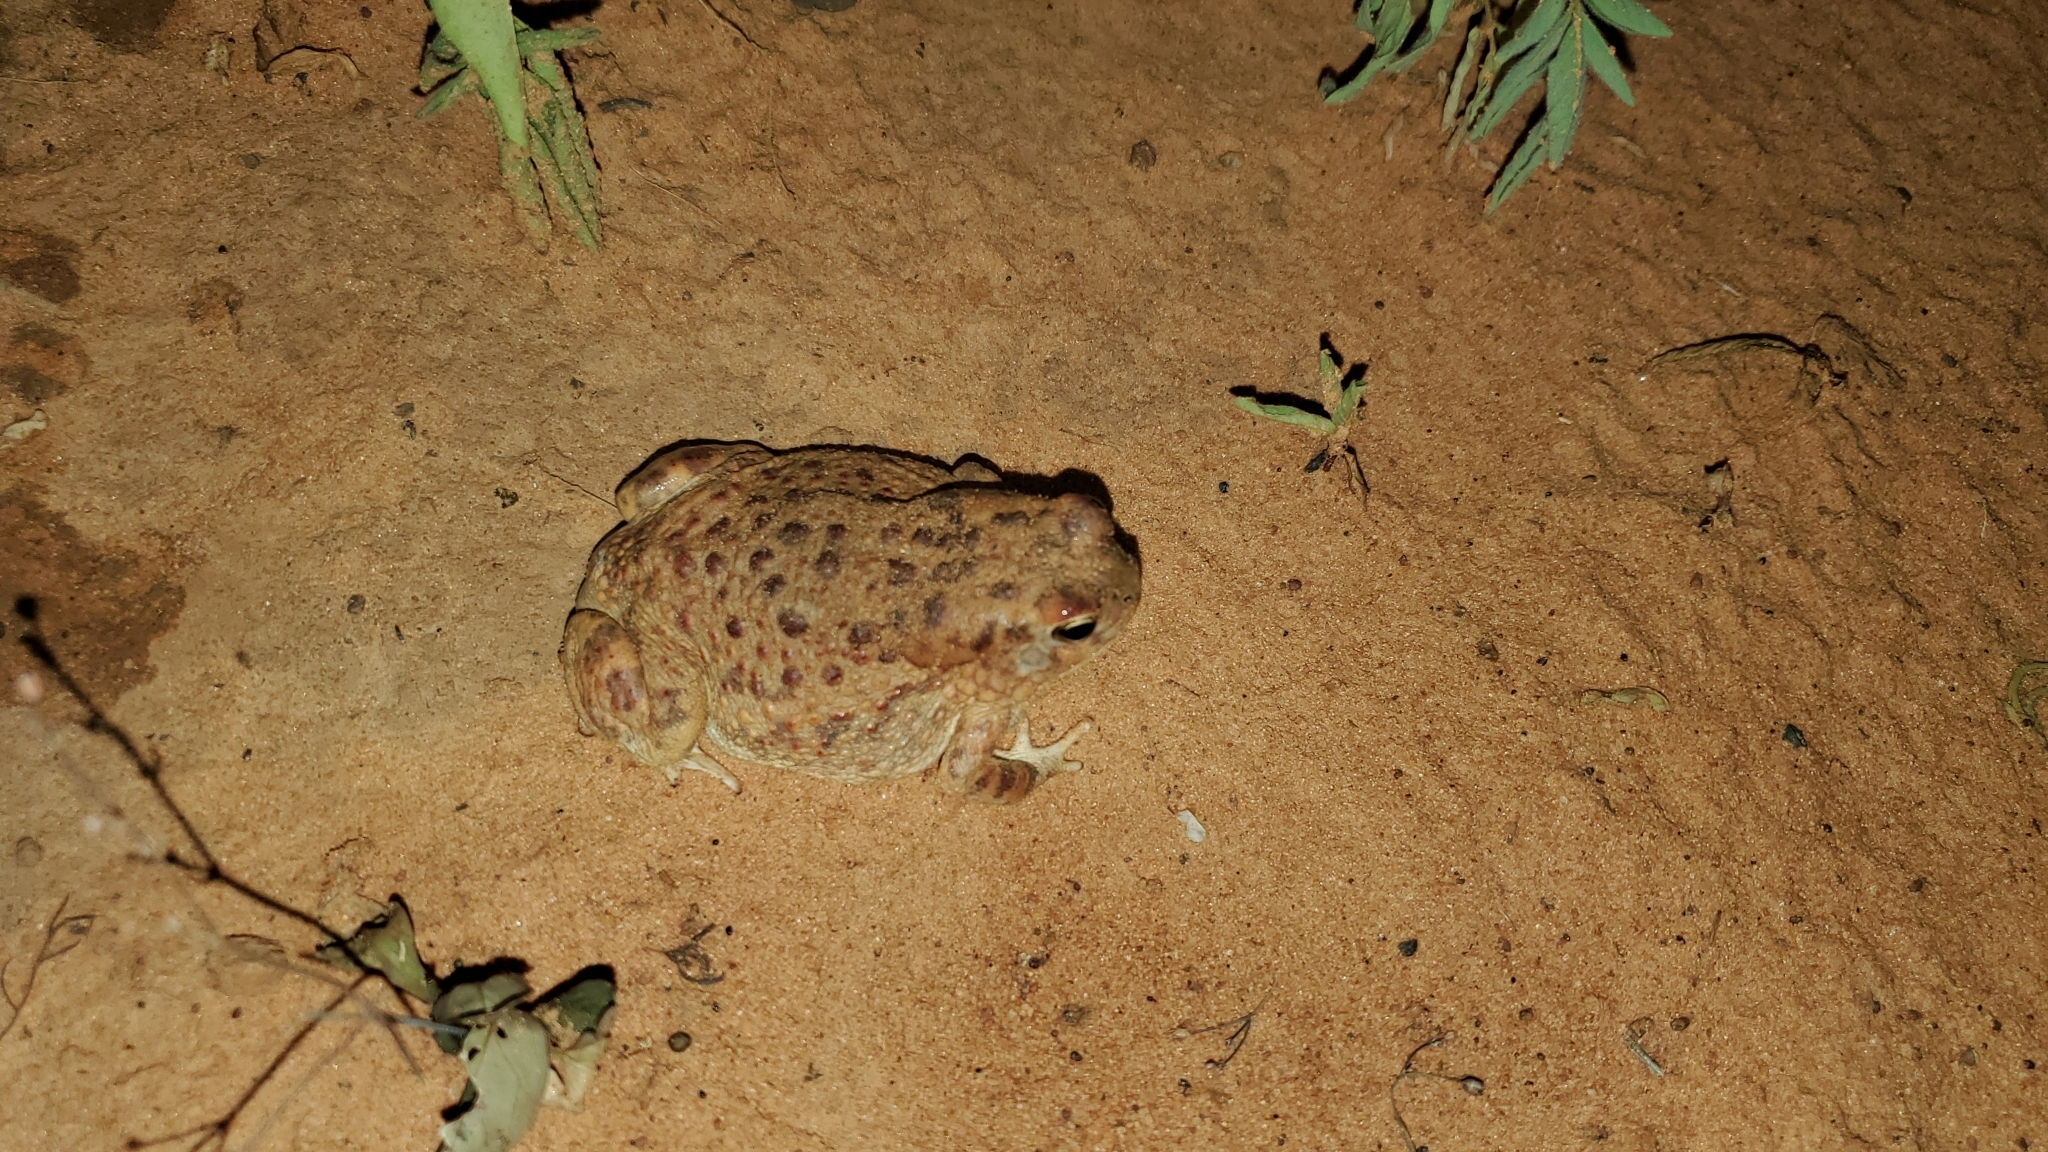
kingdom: Animalia
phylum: Chordata
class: Amphibia
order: Anura
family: Bufonidae
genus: Sclerophrys
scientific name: Sclerophrys xeros
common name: Subdesert toad
